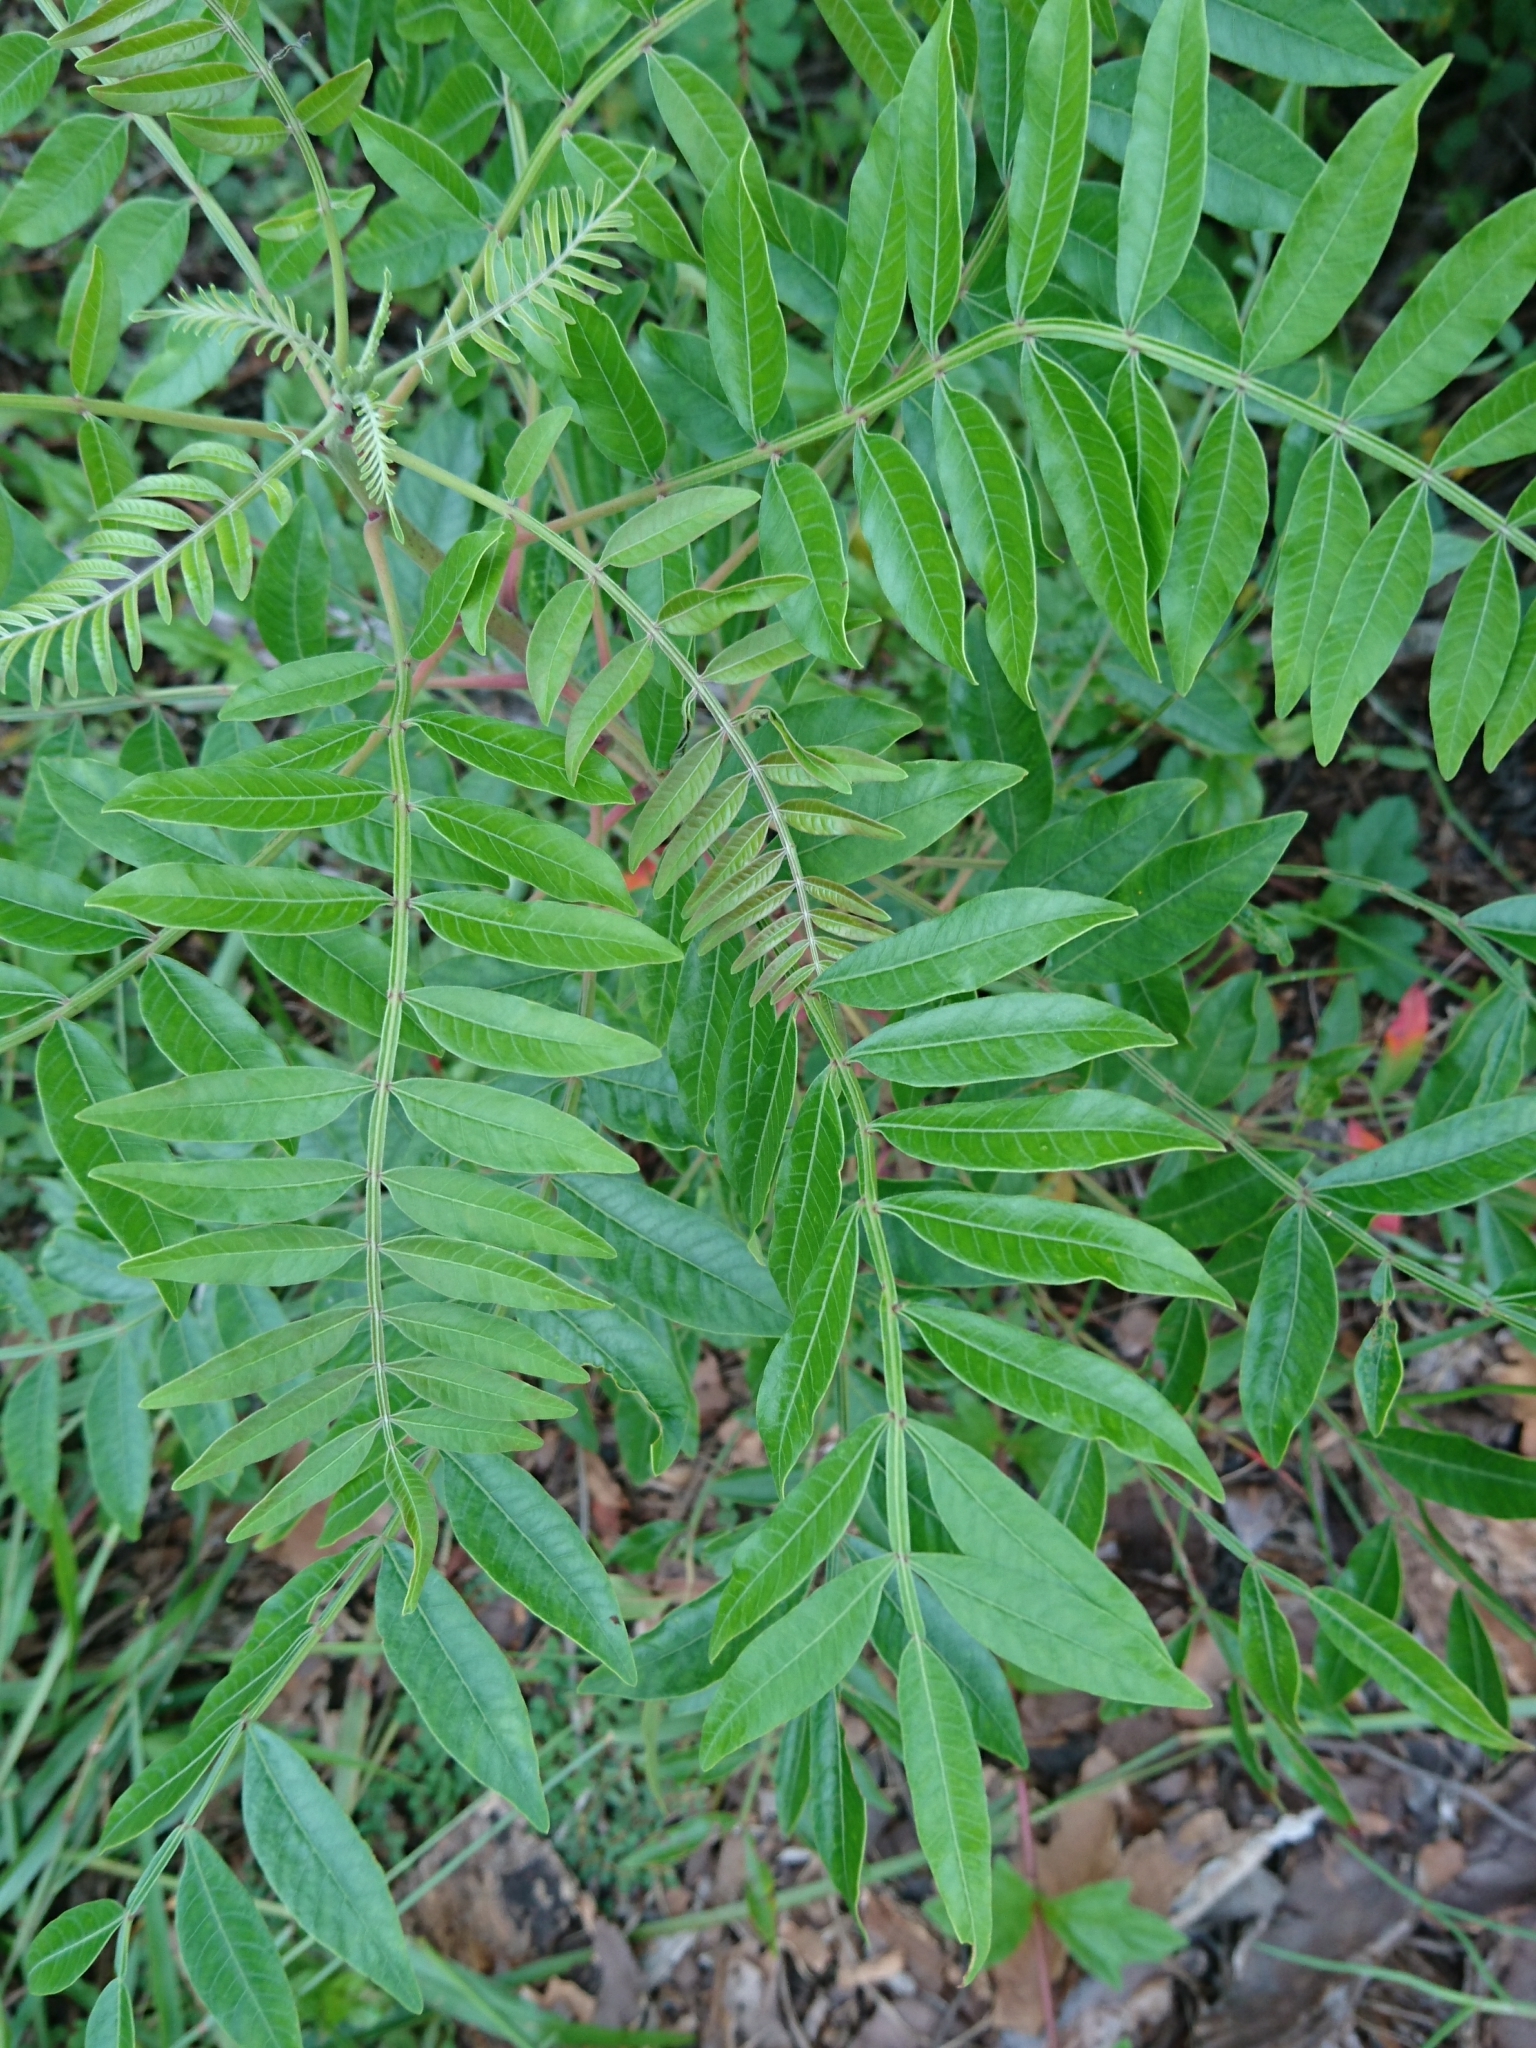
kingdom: Plantae
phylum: Tracheophyta
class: Magnoliopsida
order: Sapindales
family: Anacardiaceae
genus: Rhus
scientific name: Rhus copallina
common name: Shining sumac
